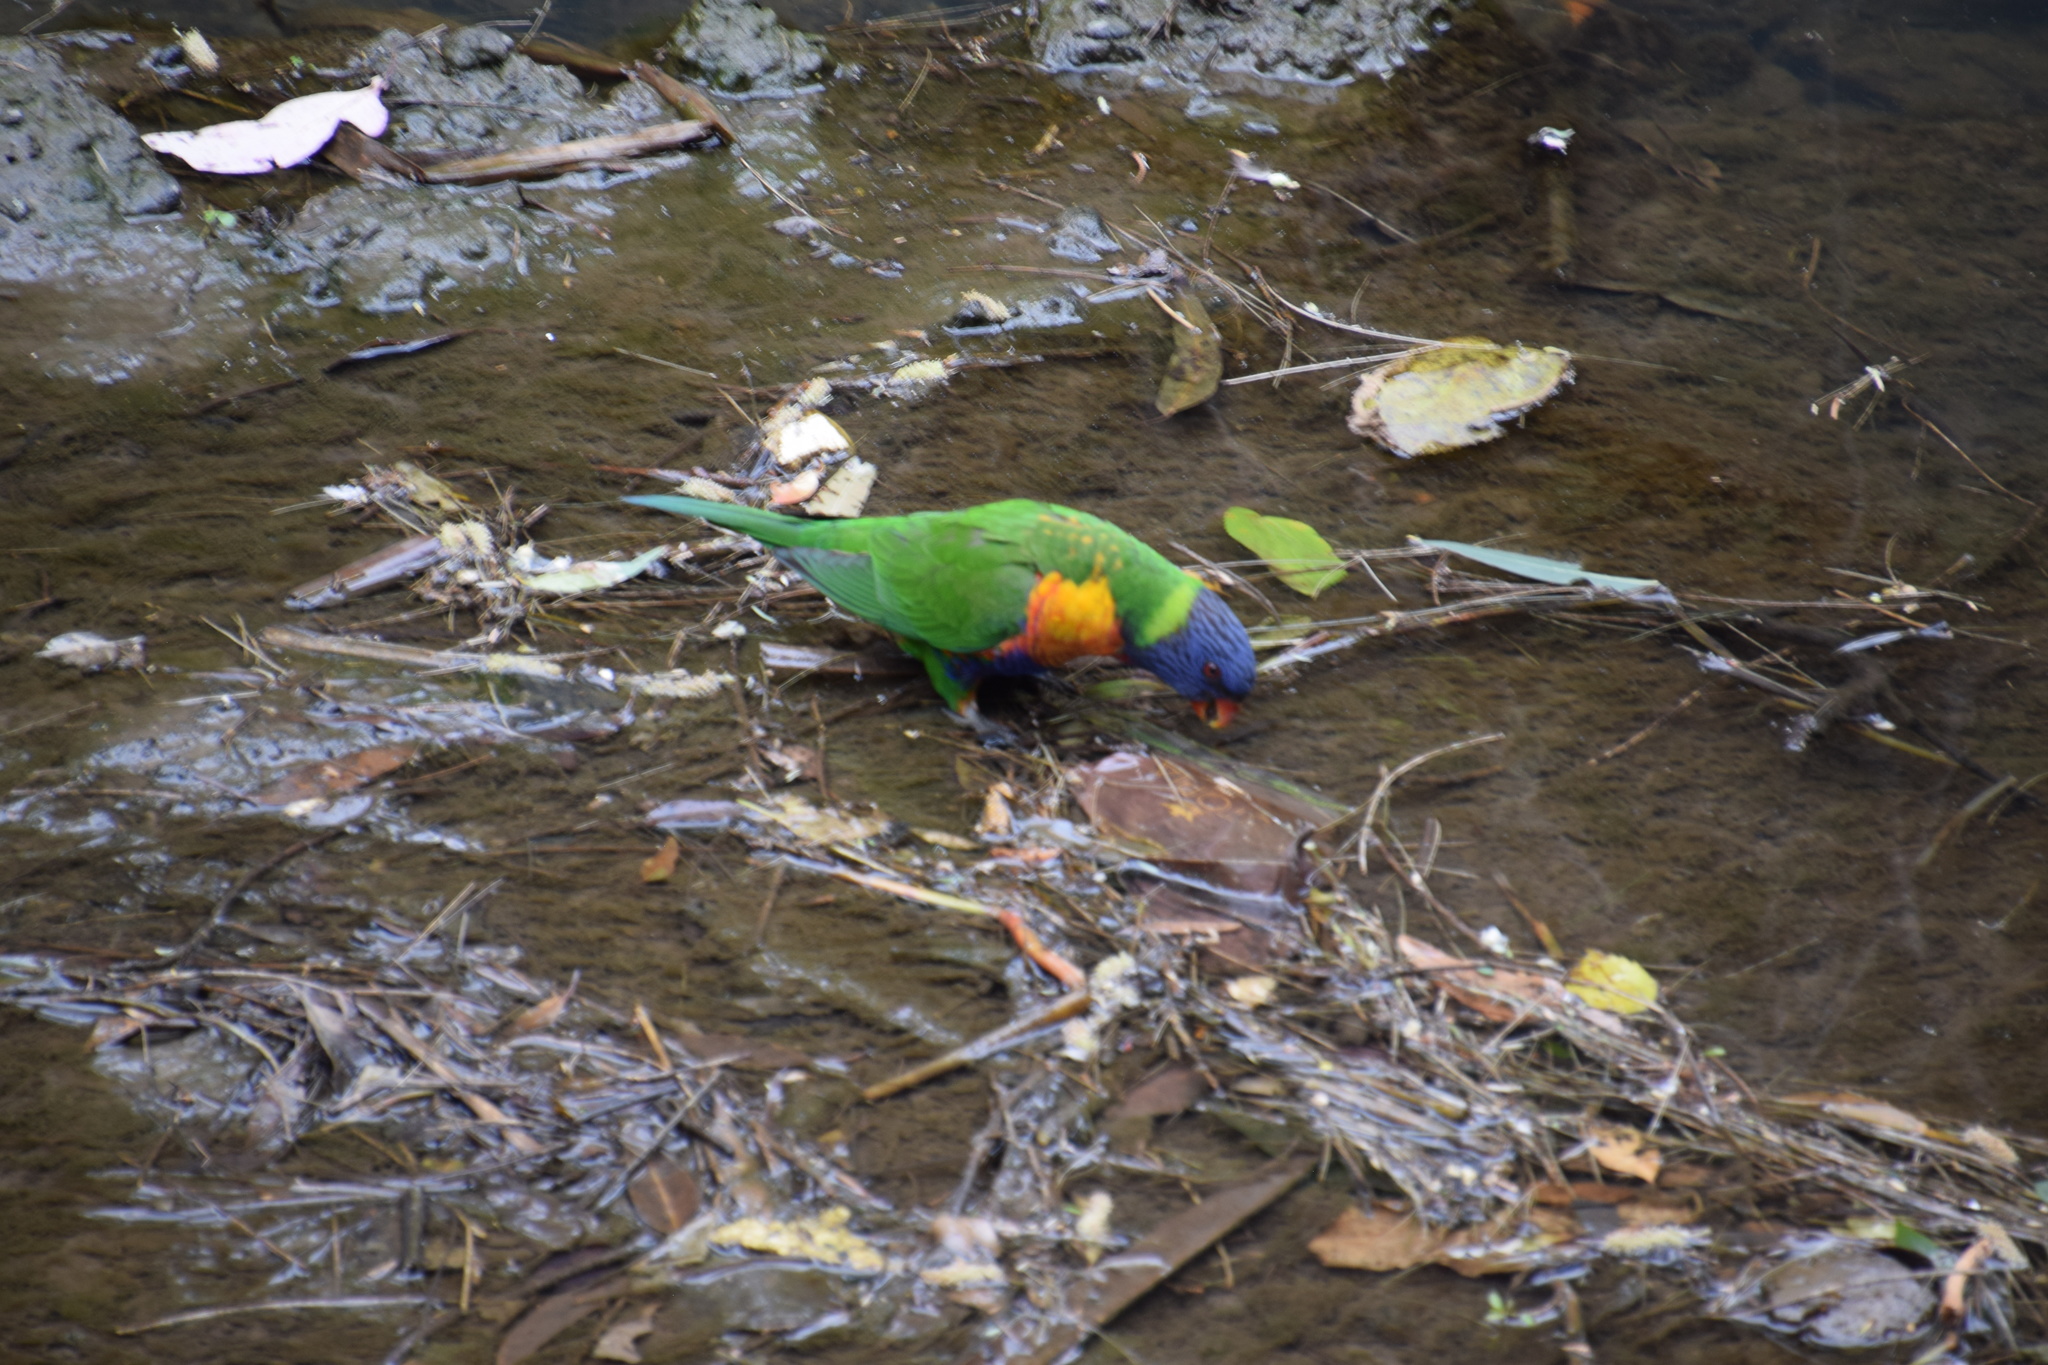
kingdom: Animalia
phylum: Chordata
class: Aves
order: Psittaciformes
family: Psittacidae
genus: Trichoglossus
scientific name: Trichoglossus haematodus
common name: Coconut lorikeet
